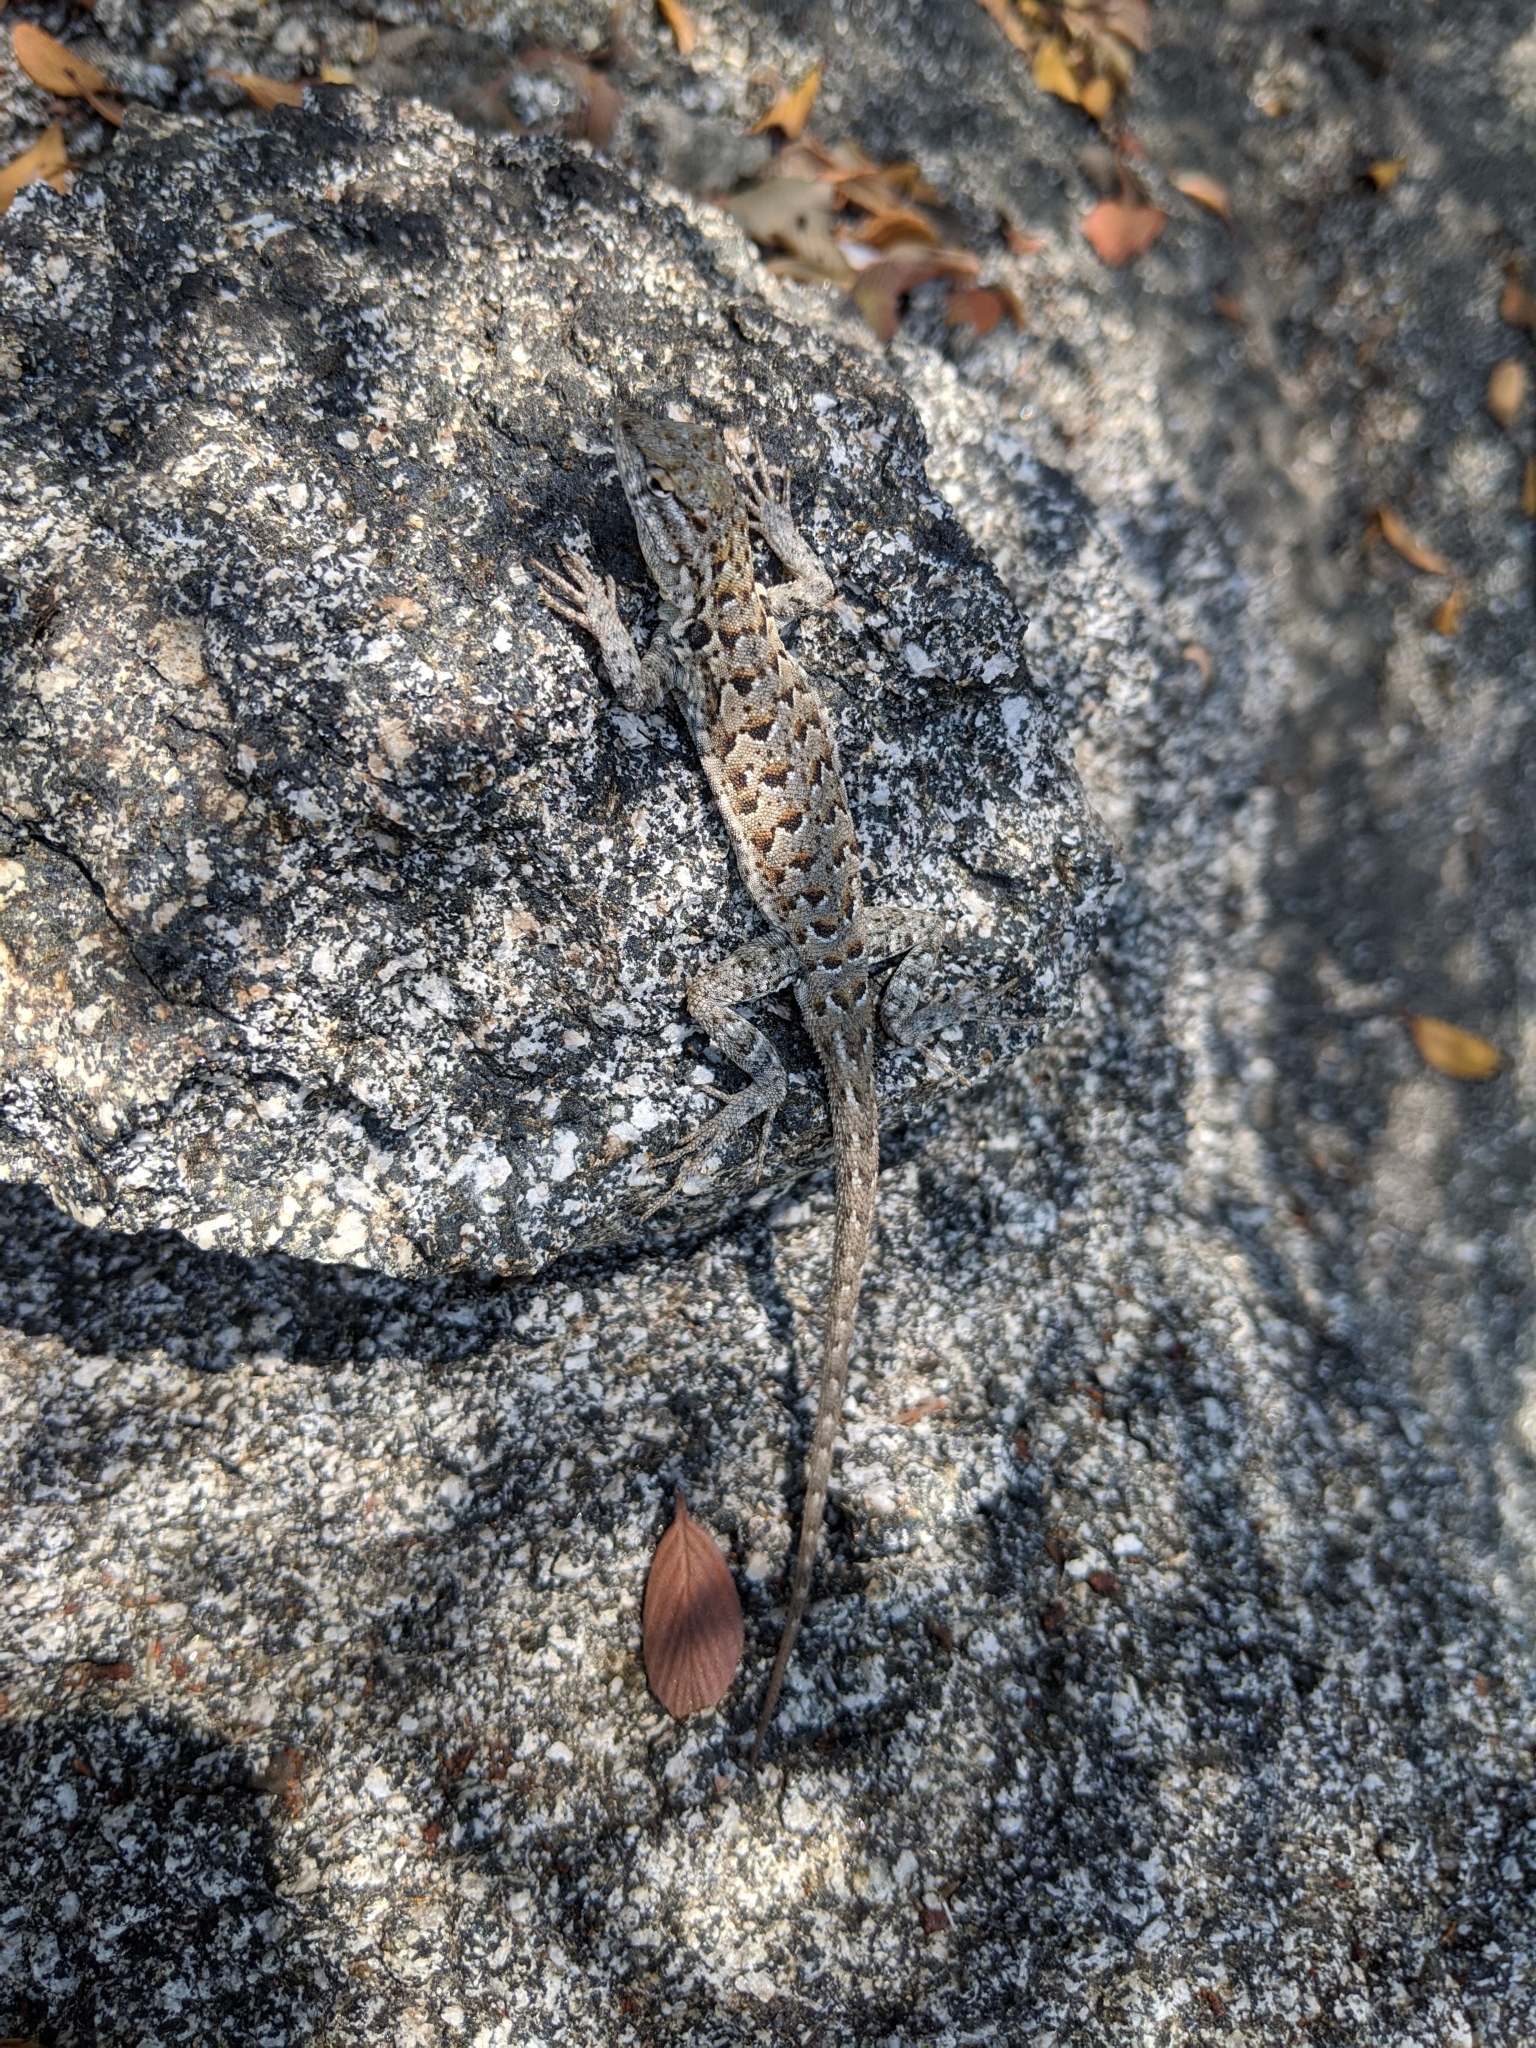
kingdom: Animalia
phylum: Chordata
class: Squamata
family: Phrynosomatidae
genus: Uta
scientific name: Uta stansburiana
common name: Side-blotched lizard
